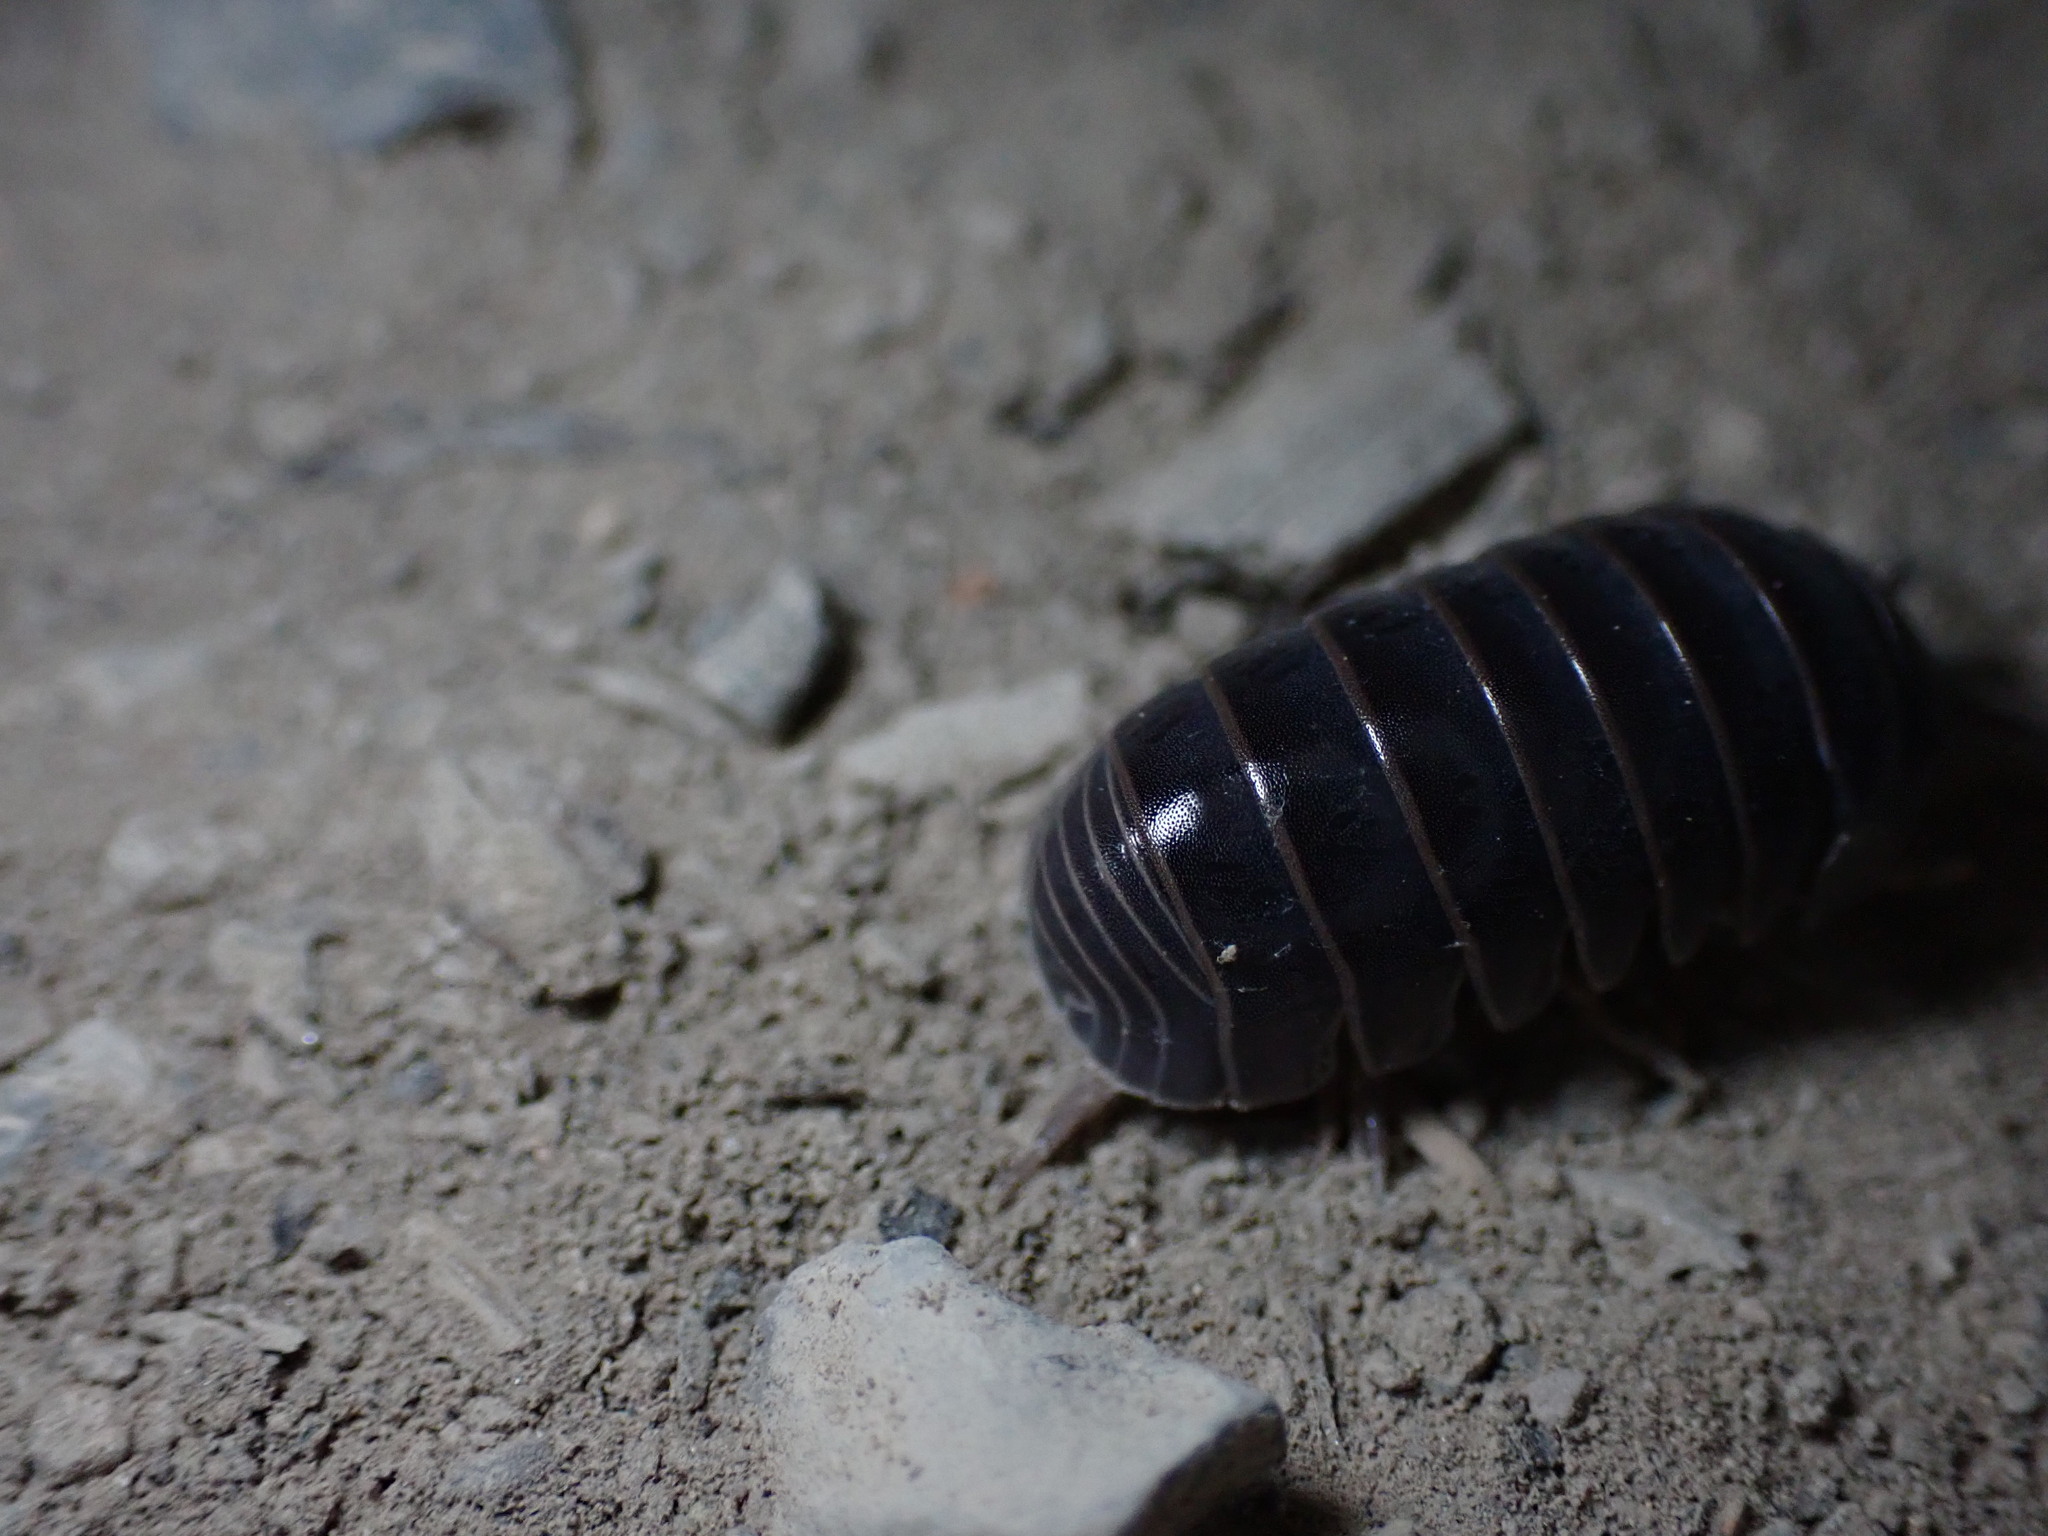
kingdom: Animalia
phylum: Arthropoda
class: Malacostraca
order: Isopoda
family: Armadillidae
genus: Armadillo
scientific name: Armadillo officinalis
